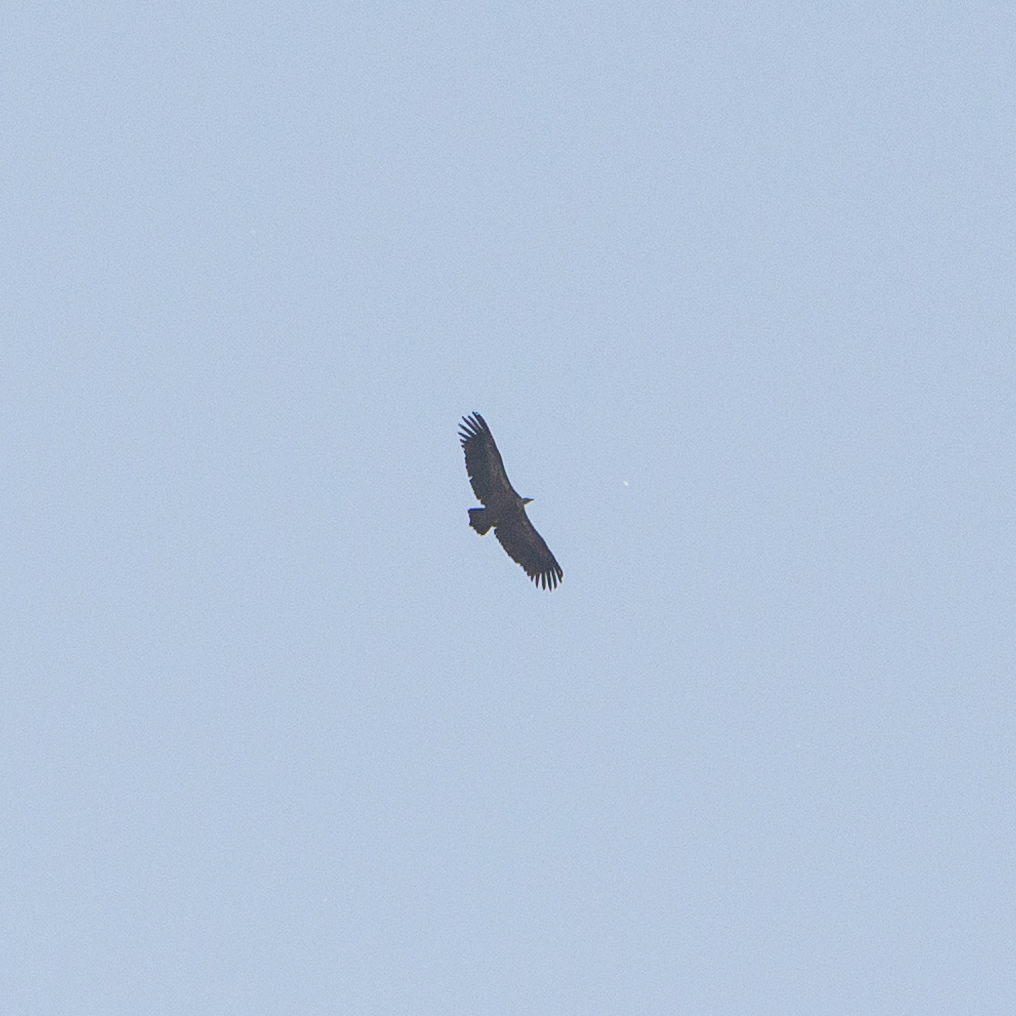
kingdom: Animalia
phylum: Chordata
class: Aves
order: Accipitriformes
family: Accipitridae
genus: Gyps
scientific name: Gyps fulvus
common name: Griffon vulture
